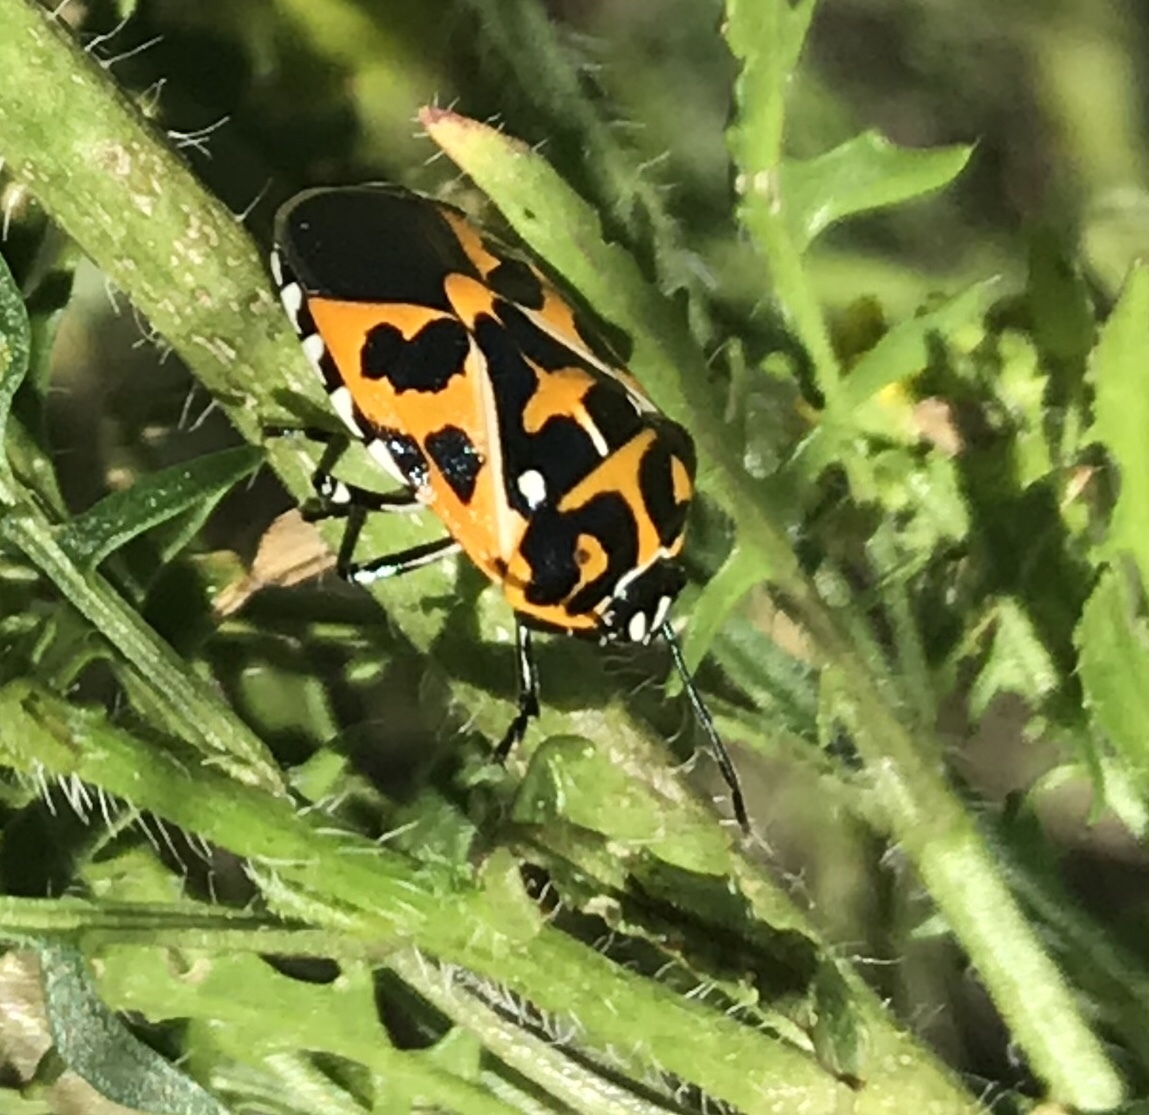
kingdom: Animalia
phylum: Arthropoda
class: Insecta
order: Hemiptera
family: Pentatomidae
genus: Murgantia
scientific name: Murgantia histrionica
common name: Harlequin bug
